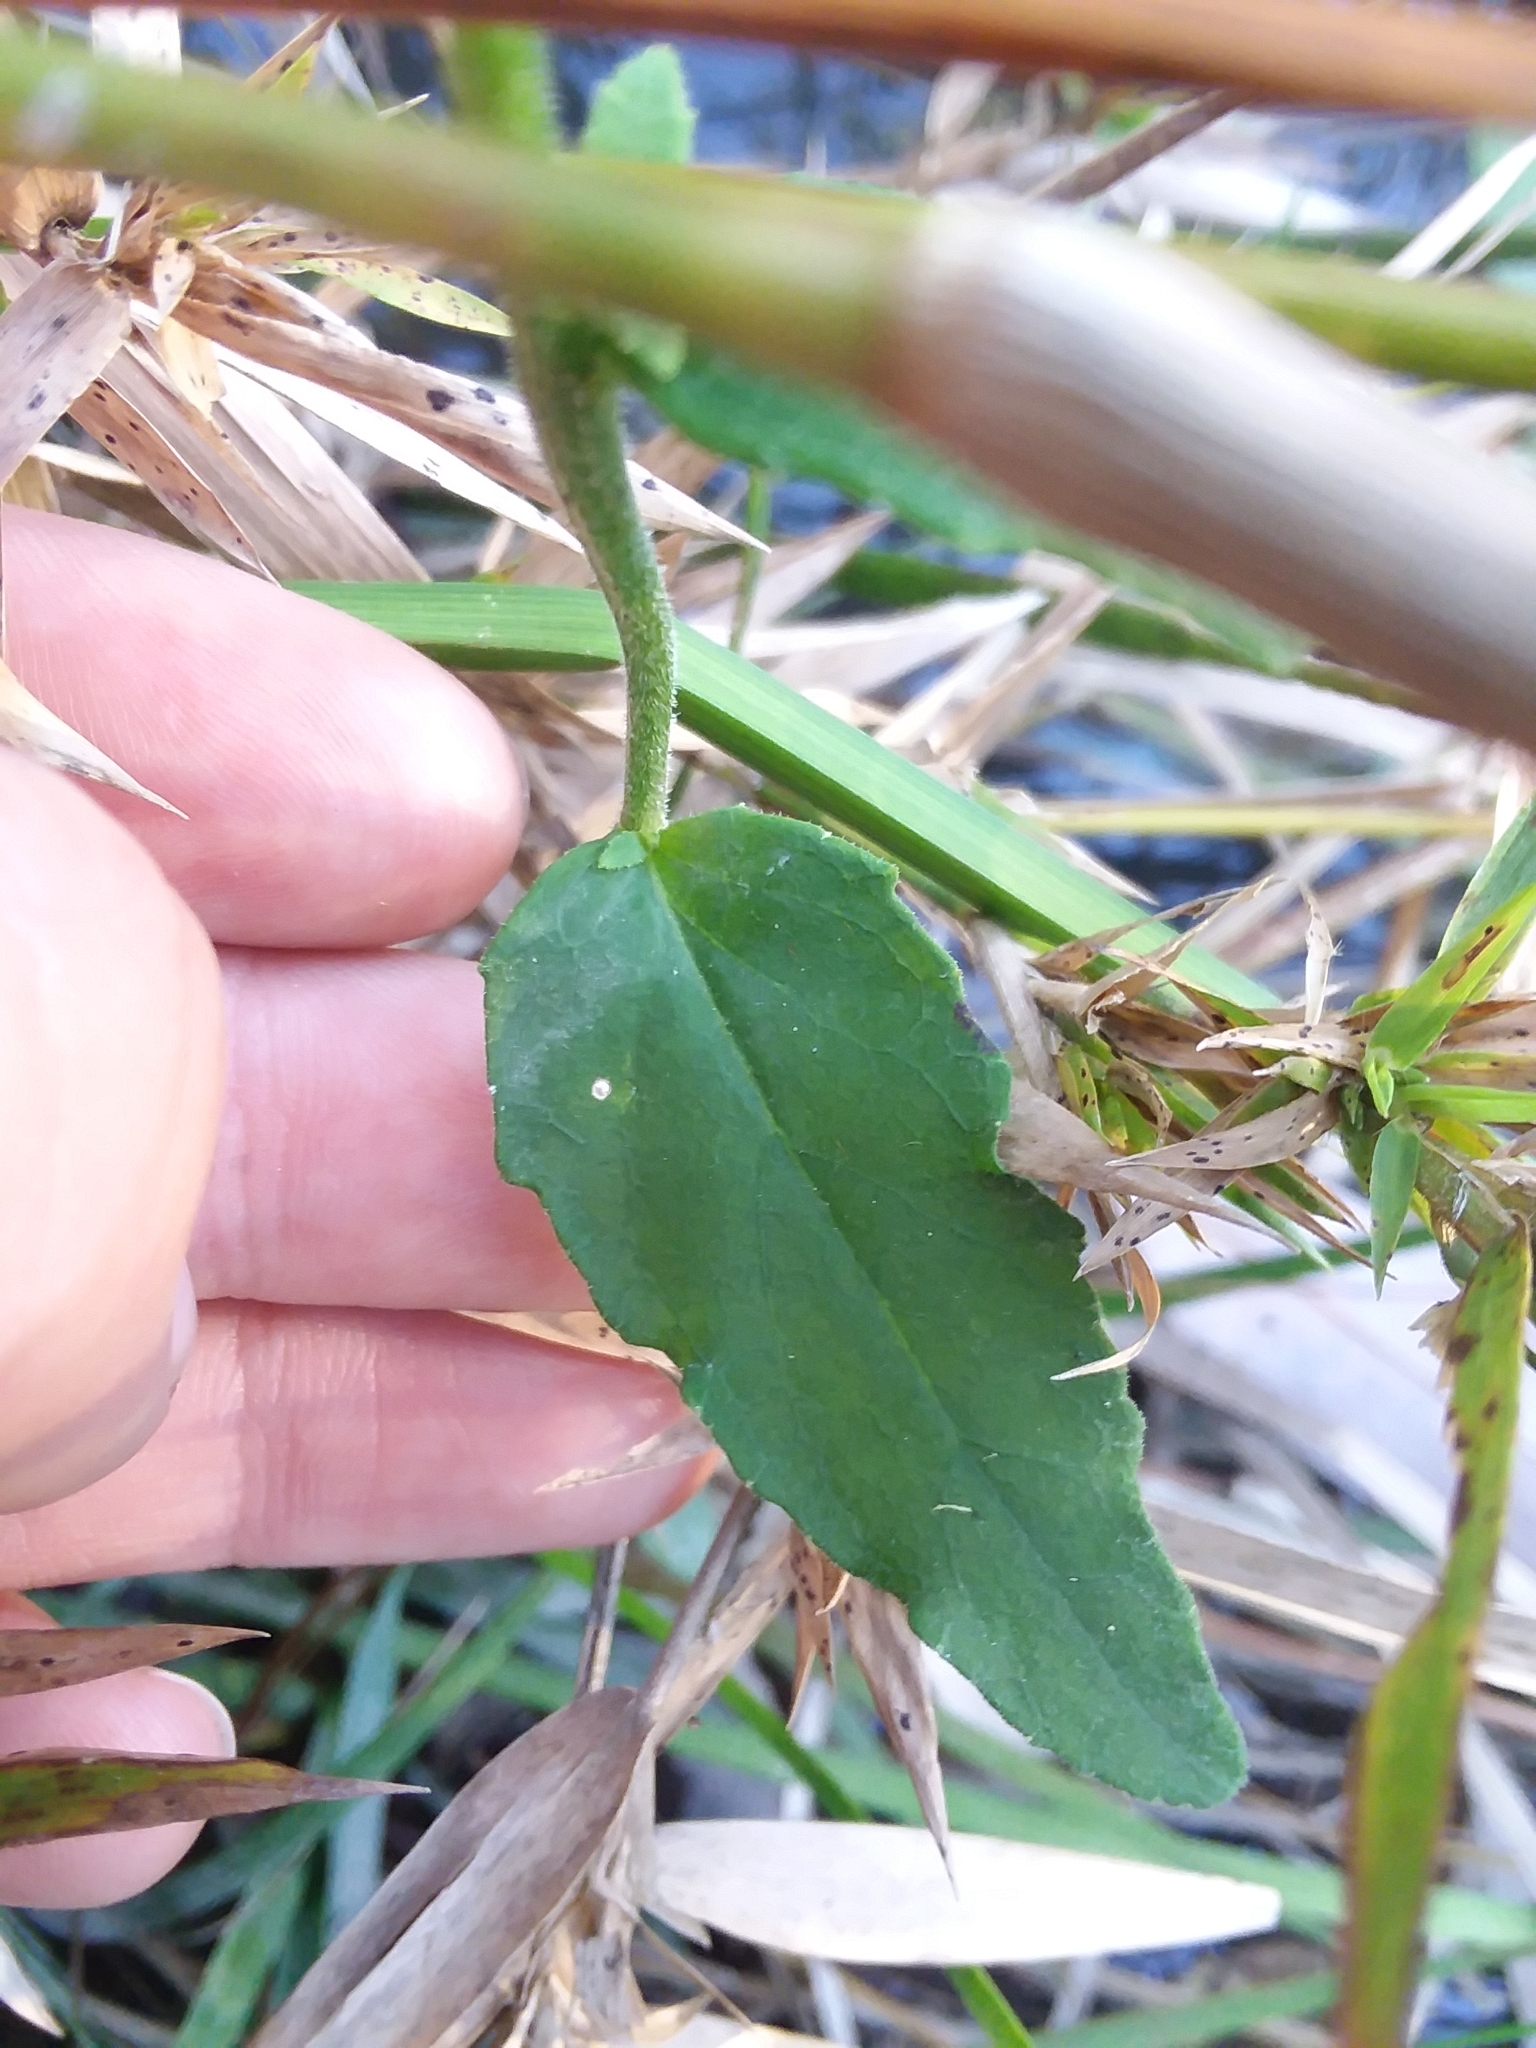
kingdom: Plantae
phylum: Tracheophyta
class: Magnoliopsida
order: Asterales
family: Campanulaceae
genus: Lobelia
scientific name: Lobelia rogersii
